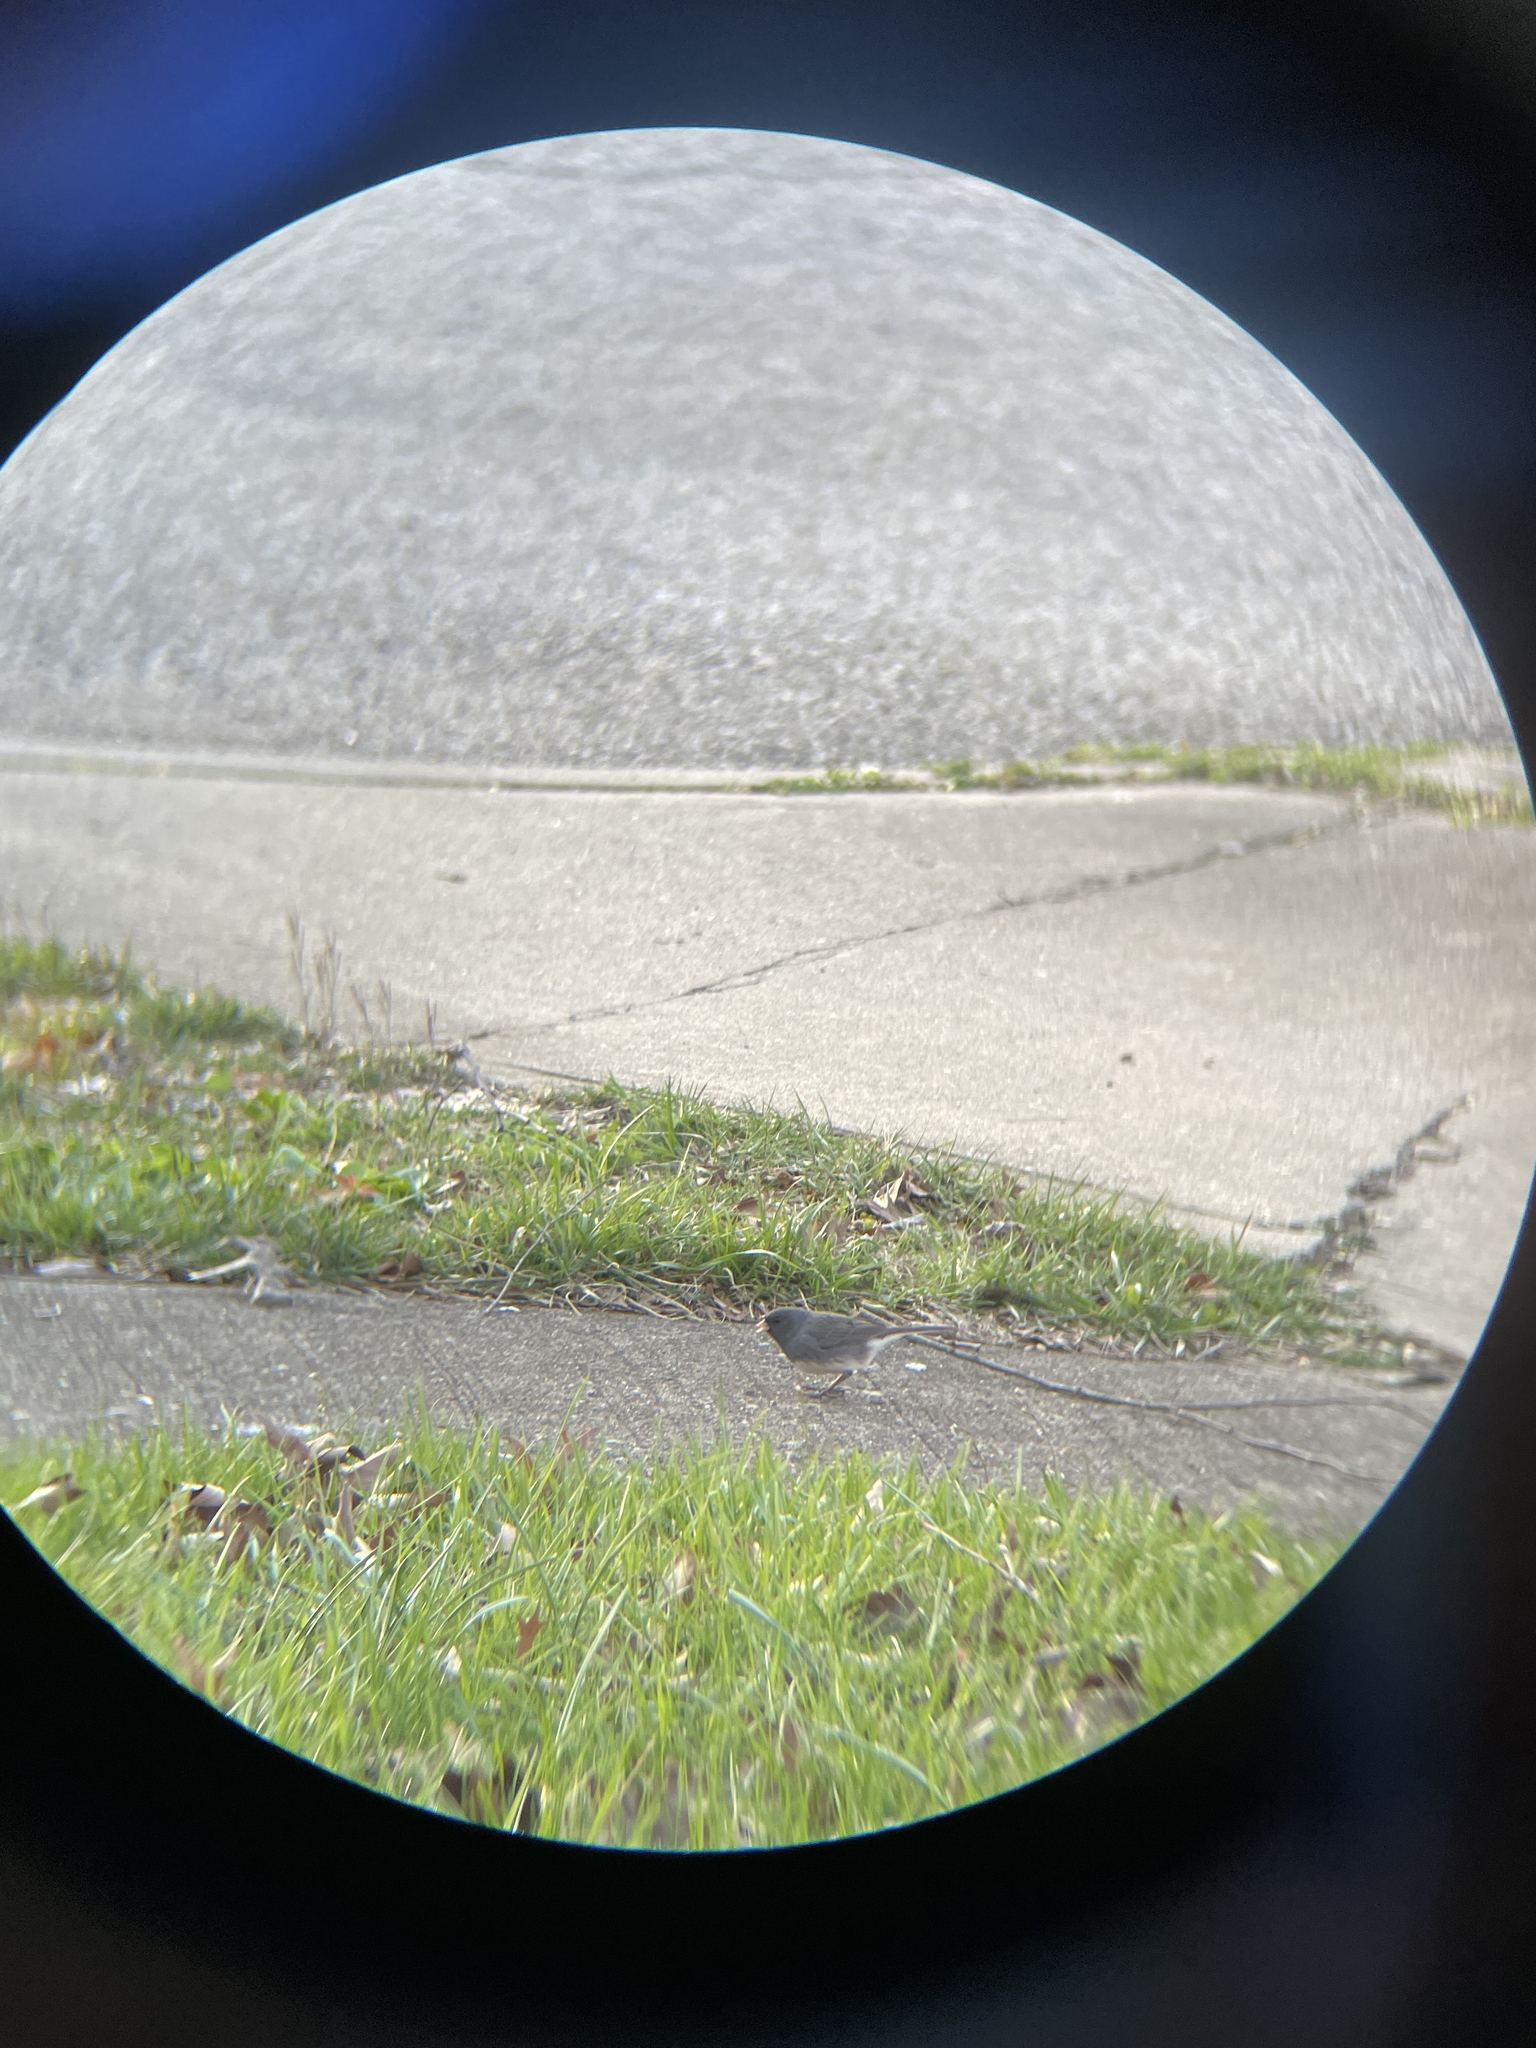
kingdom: Animalia
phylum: Chordata
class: Aves
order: Passeriformes
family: Passerellidae
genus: Junco
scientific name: Junco hyemalis
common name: Dark-eyed junco
